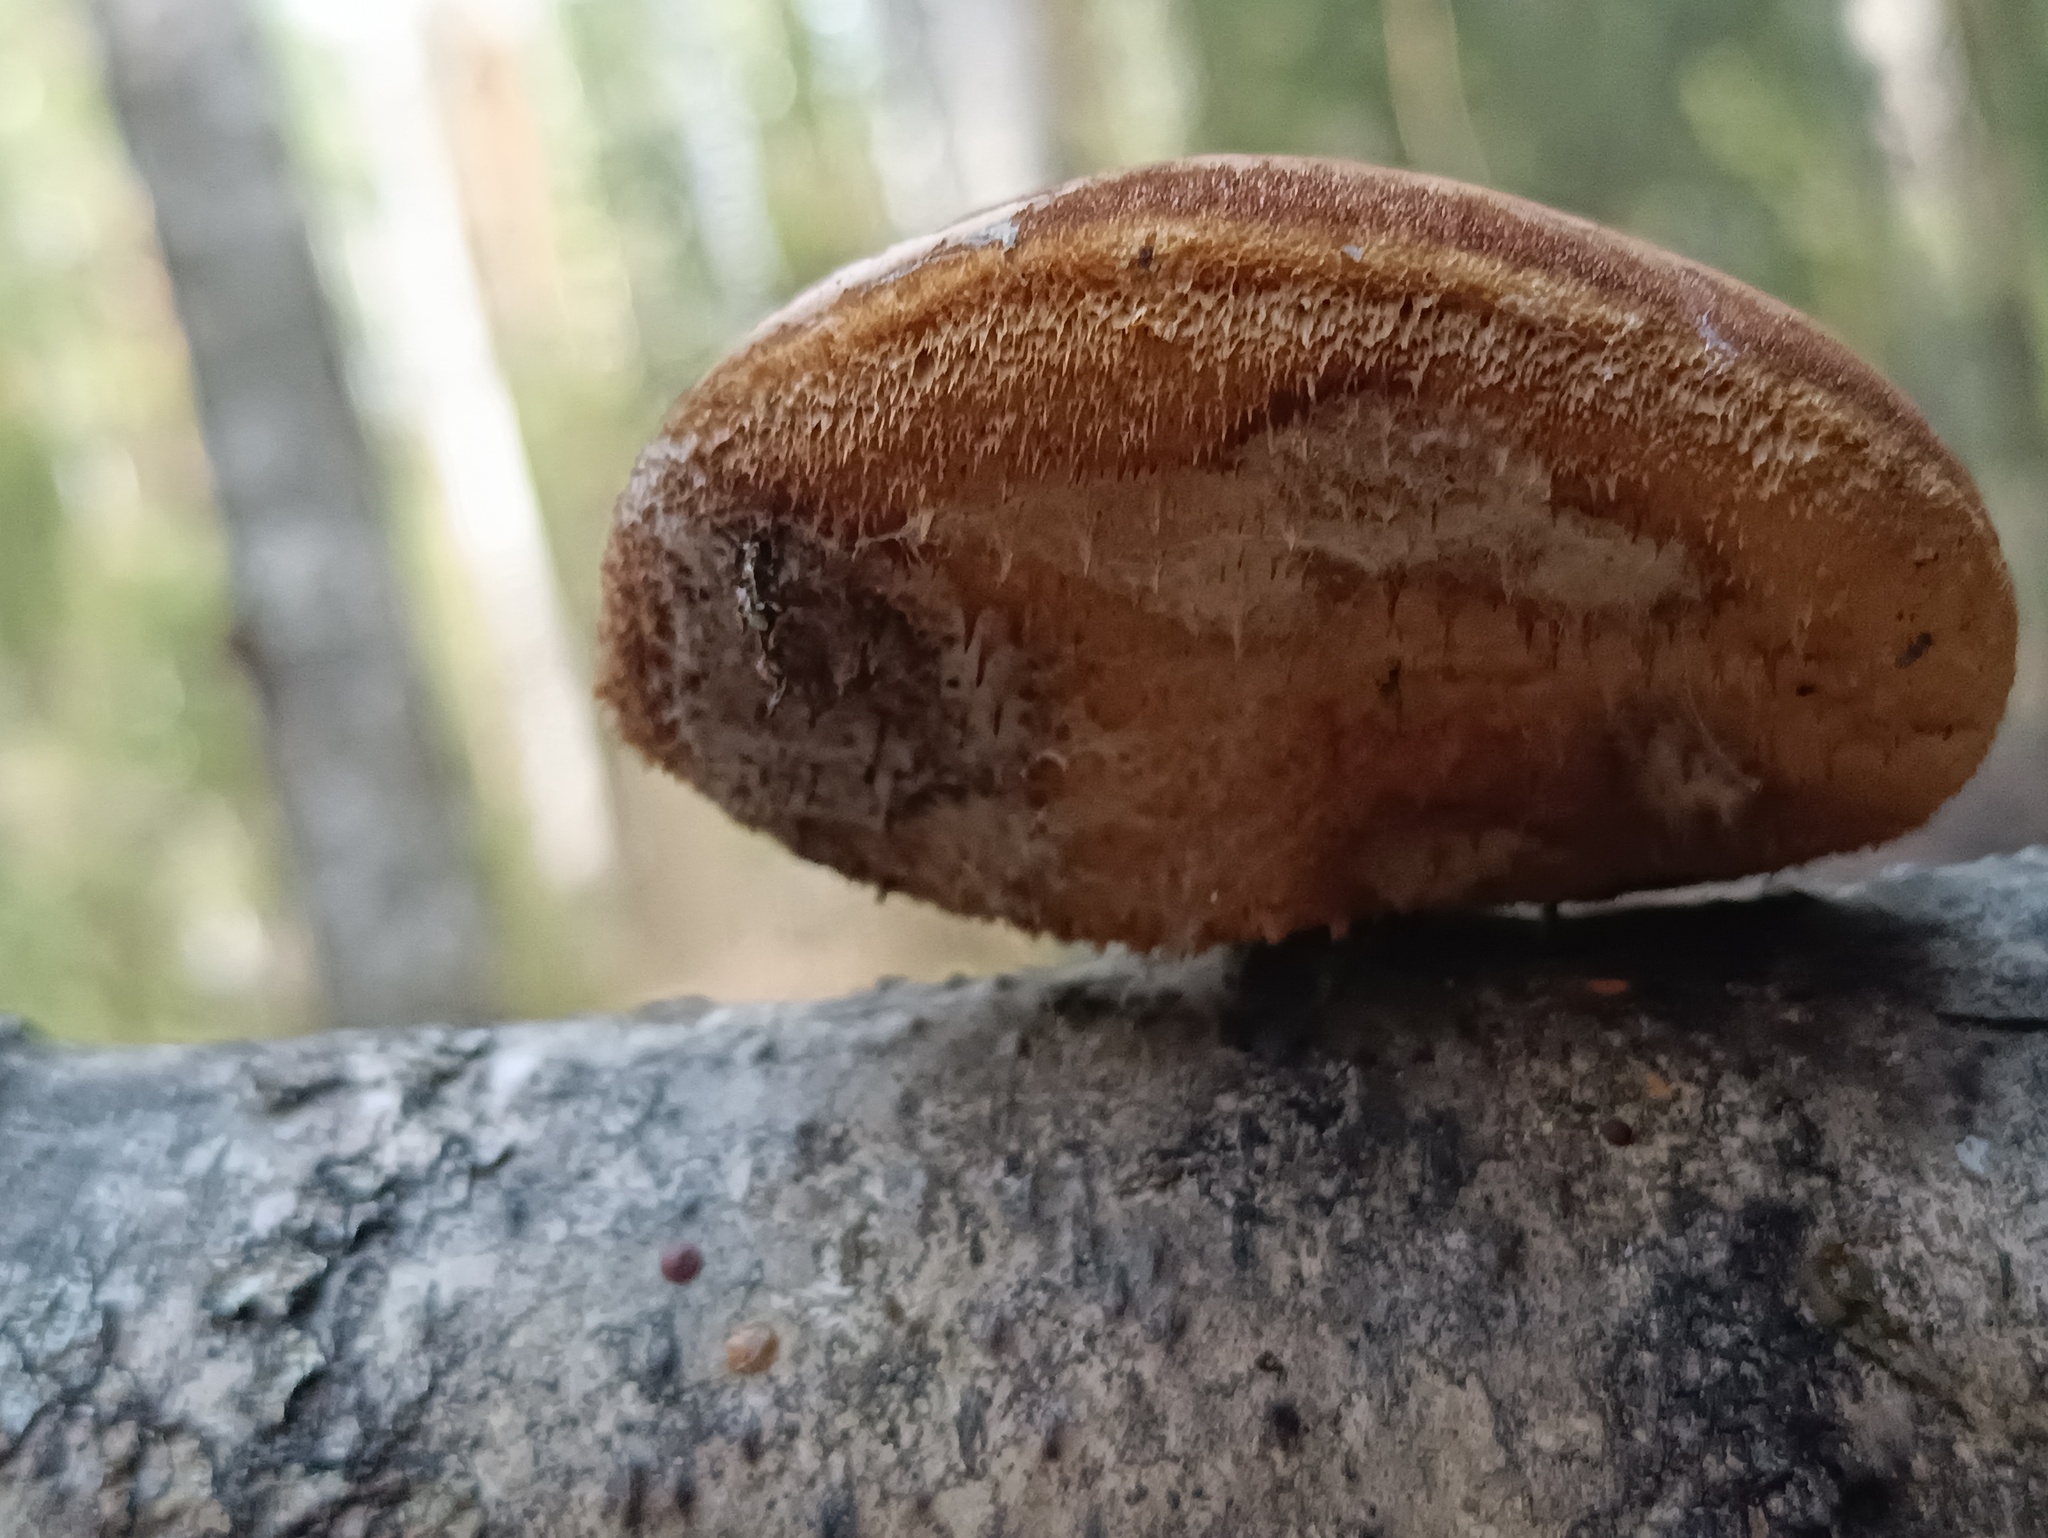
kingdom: Fungi
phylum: Basidiomycota
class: Agaricomycetes
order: Polyporales
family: Fomitopsidaceae
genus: Fomitopsis
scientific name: Fomitopsis betulina
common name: Birch polypore
